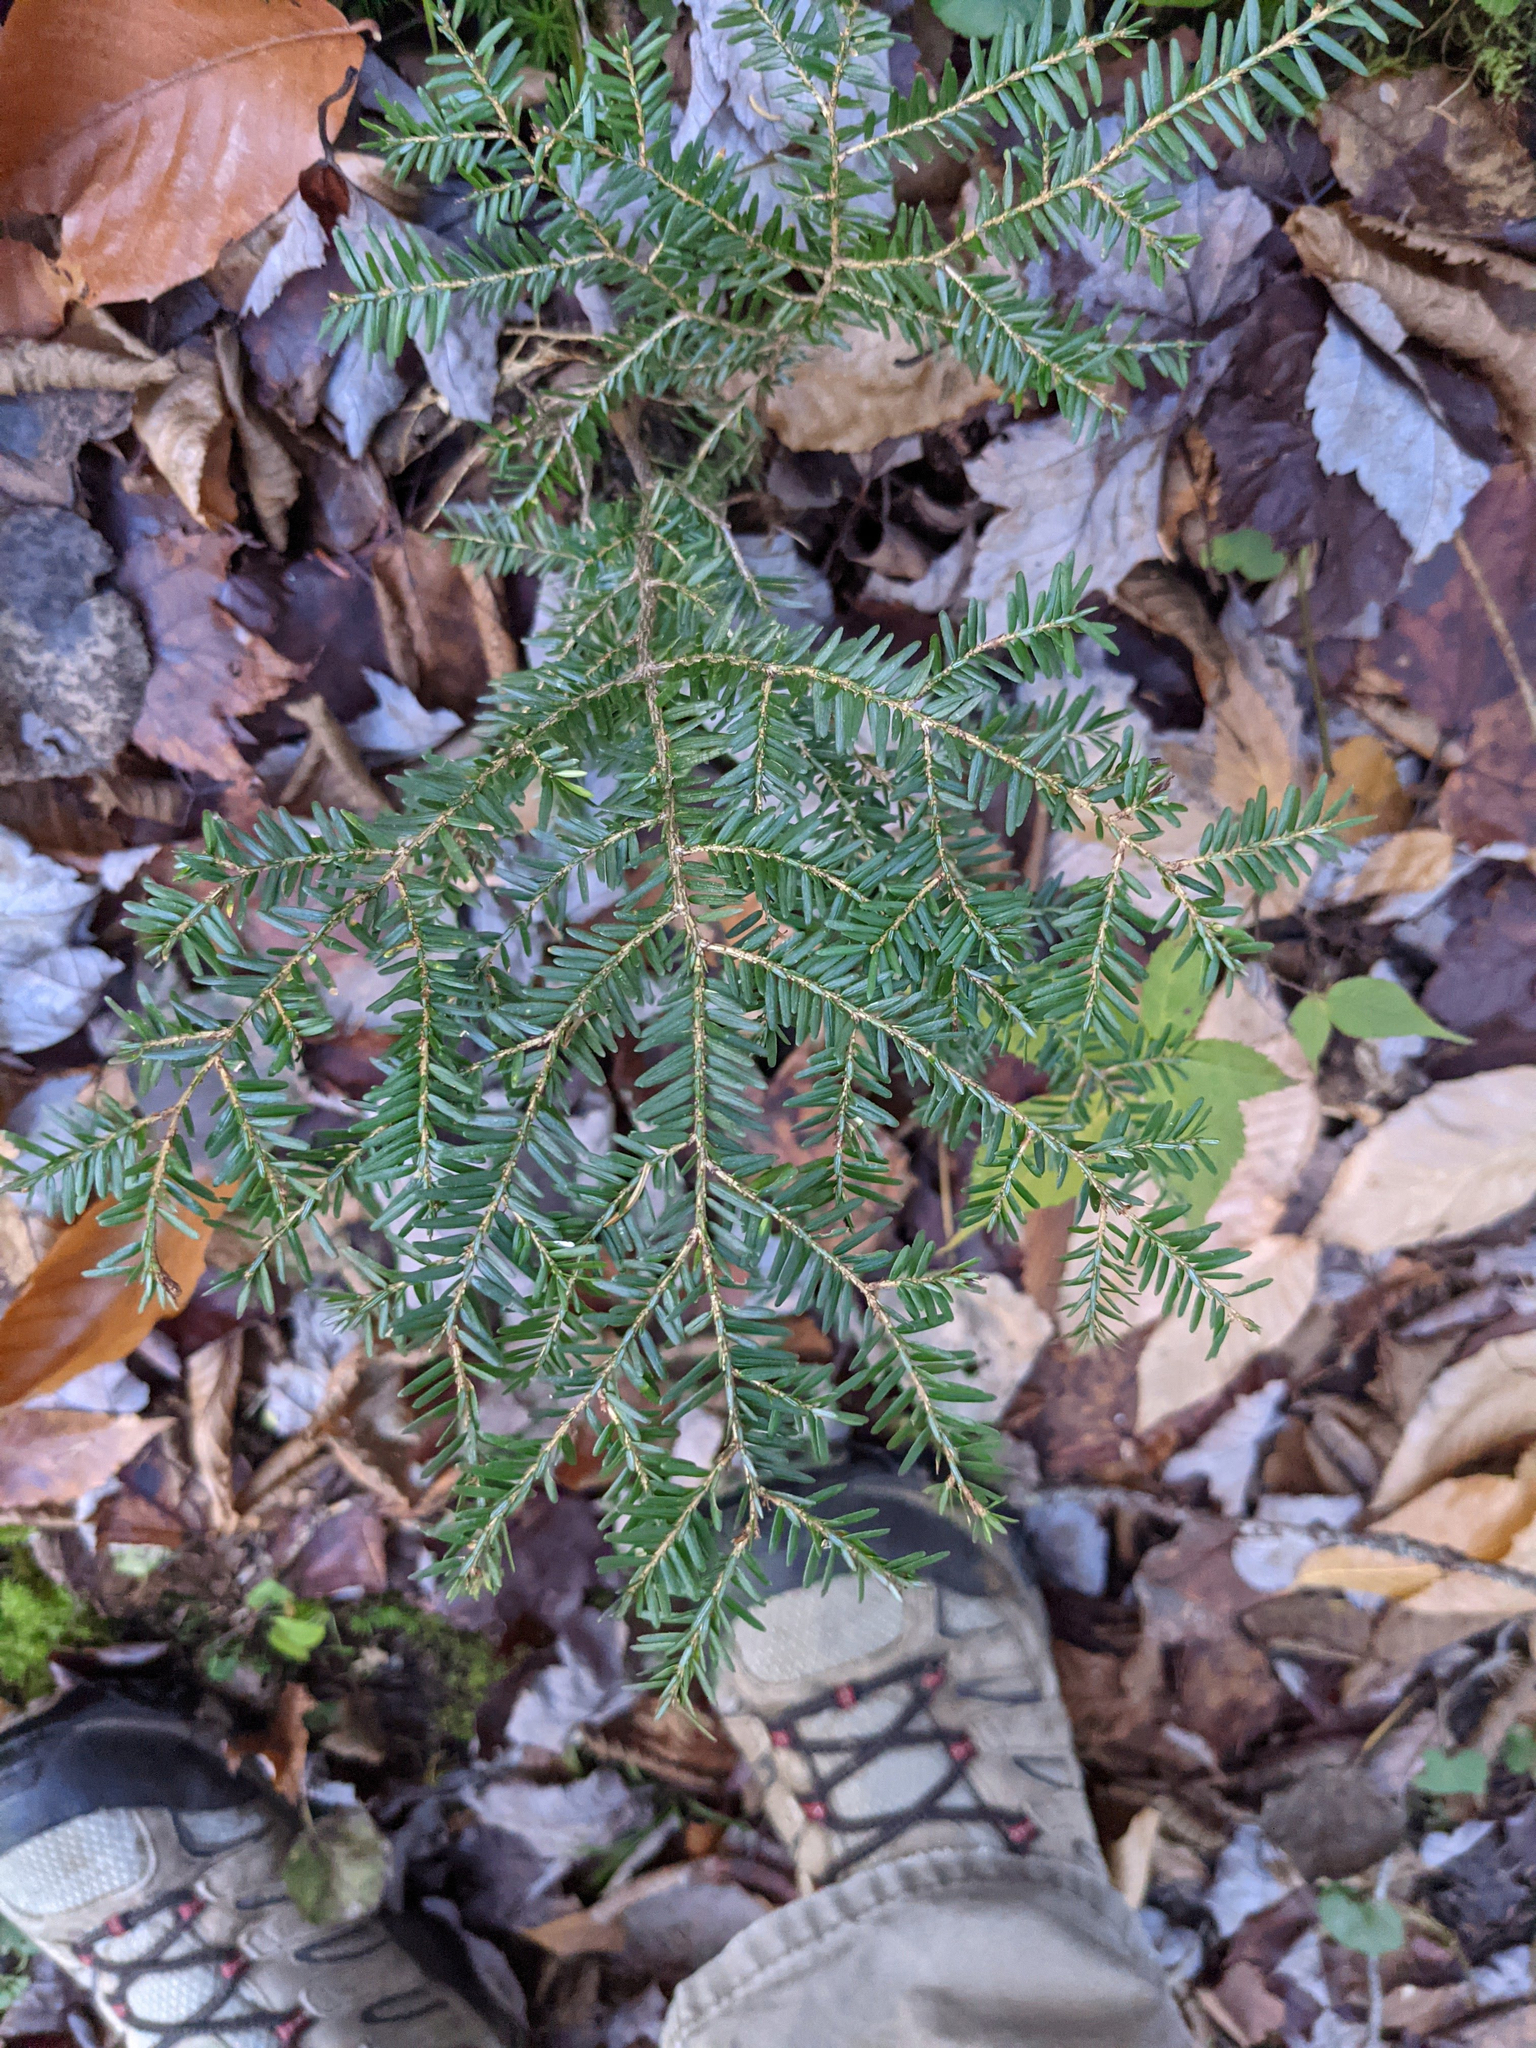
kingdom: Plantae
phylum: Tracheophyta
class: Pinopsida
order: Pinales
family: Pinaceae
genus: Tsuga
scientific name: Tsuga canadensis
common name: Eastern hemlock
